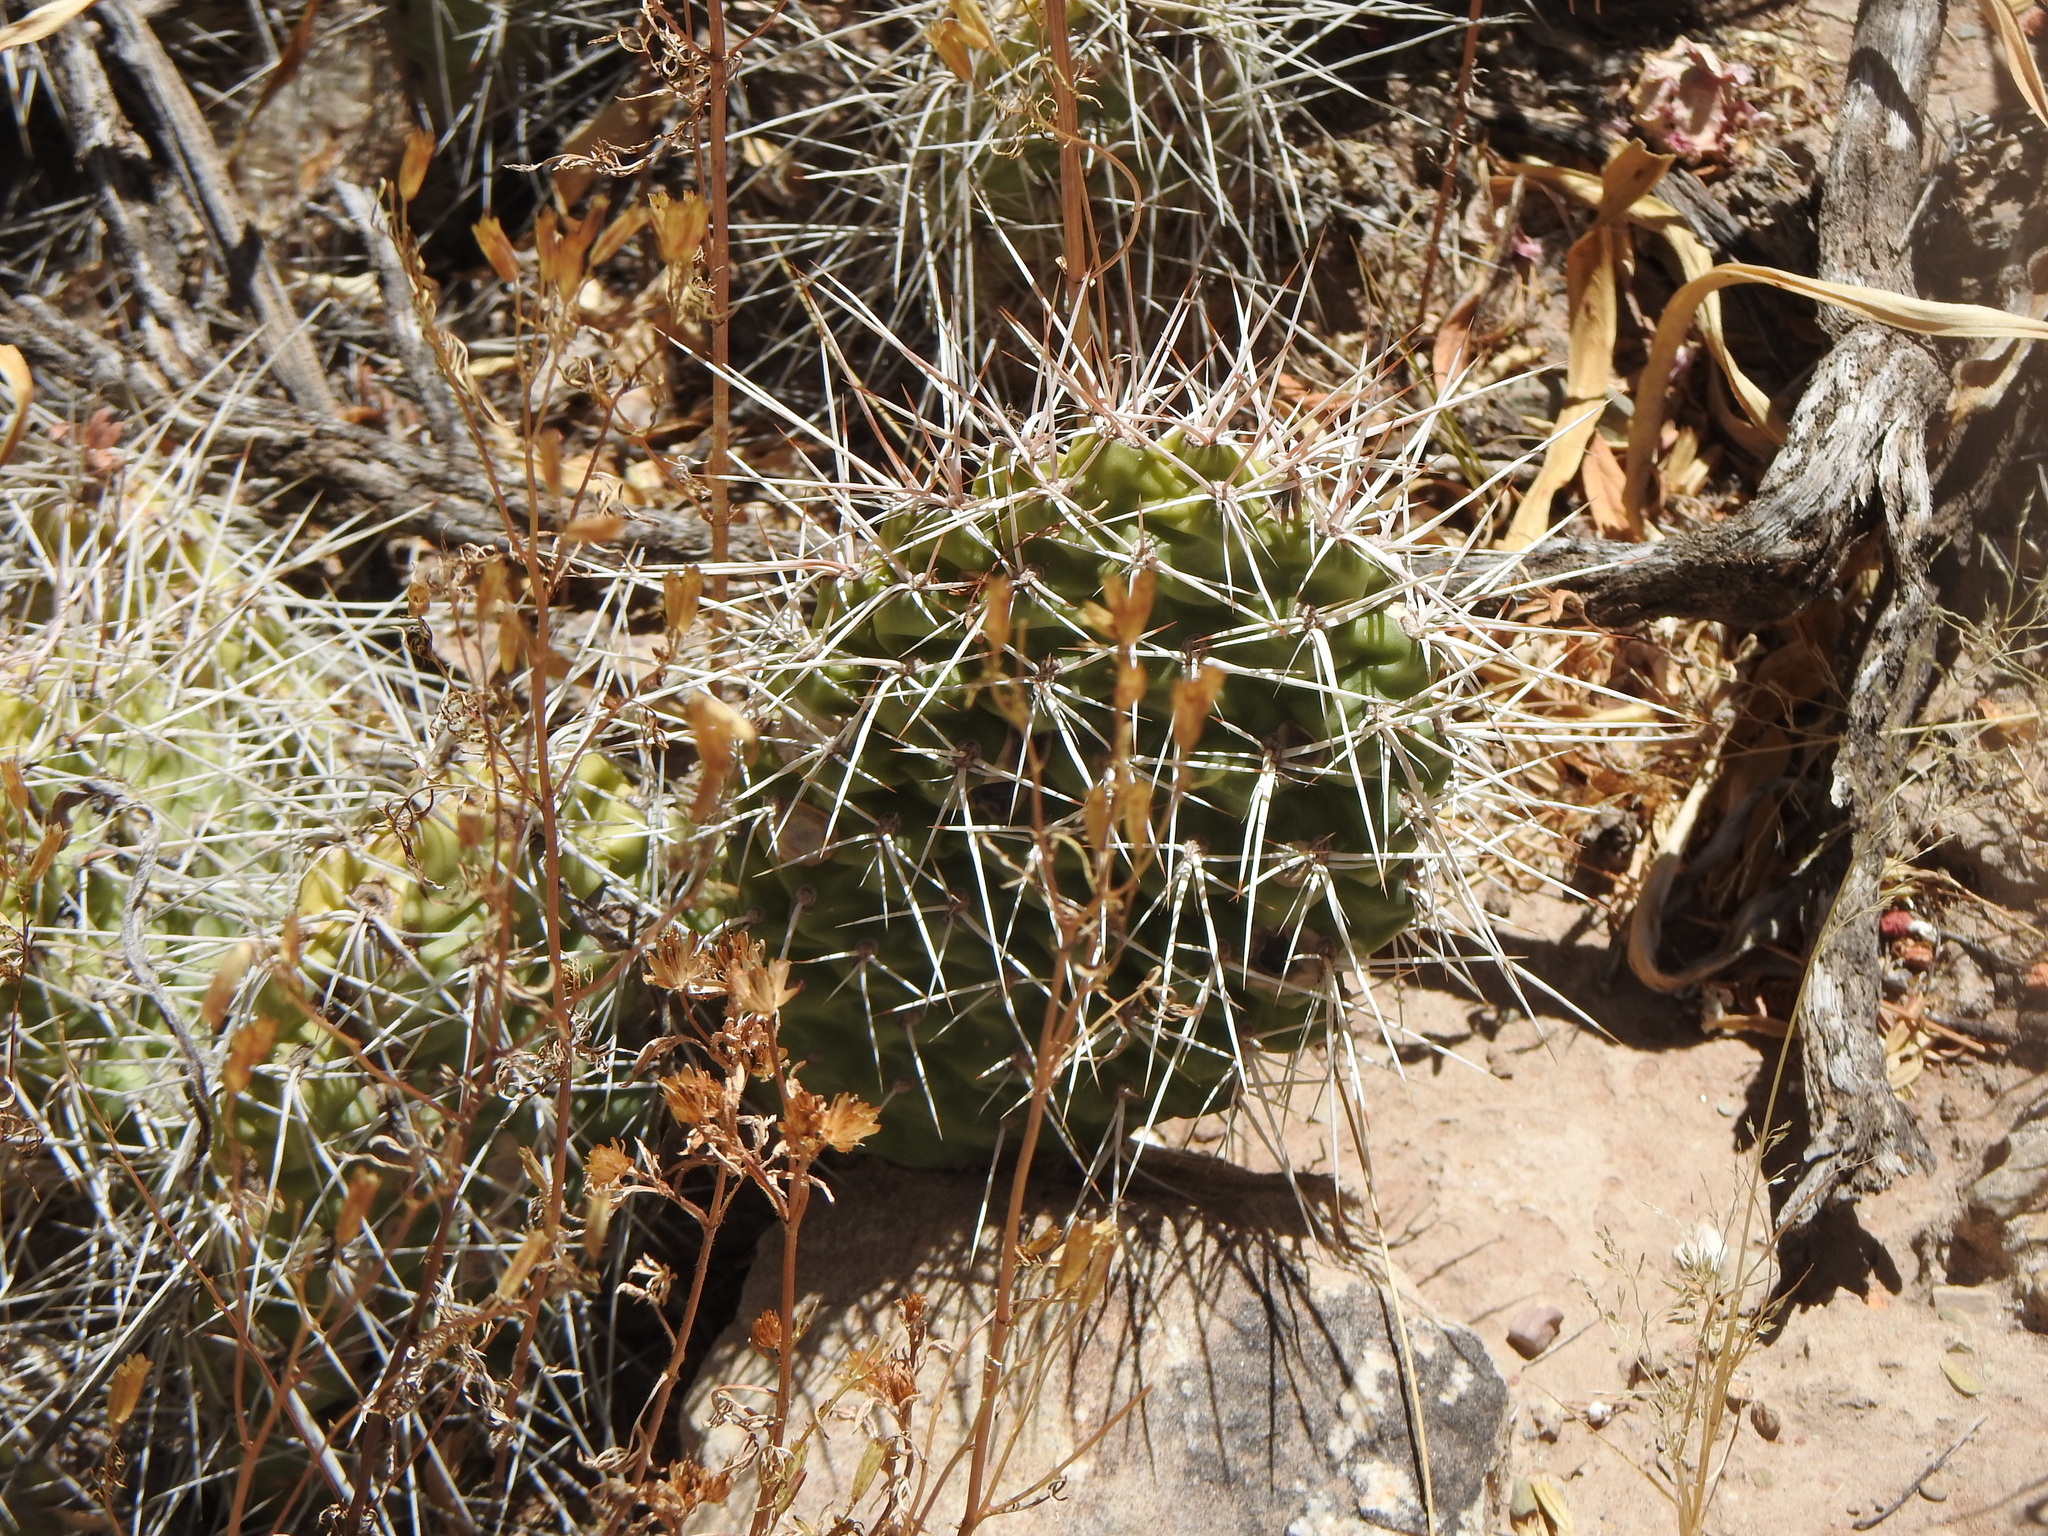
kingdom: Plantae
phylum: Tracheophyta
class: Magnoliopsida
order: Caryophyllales
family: Cactaceae
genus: Opuntia
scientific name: Opuntia sulphurea
